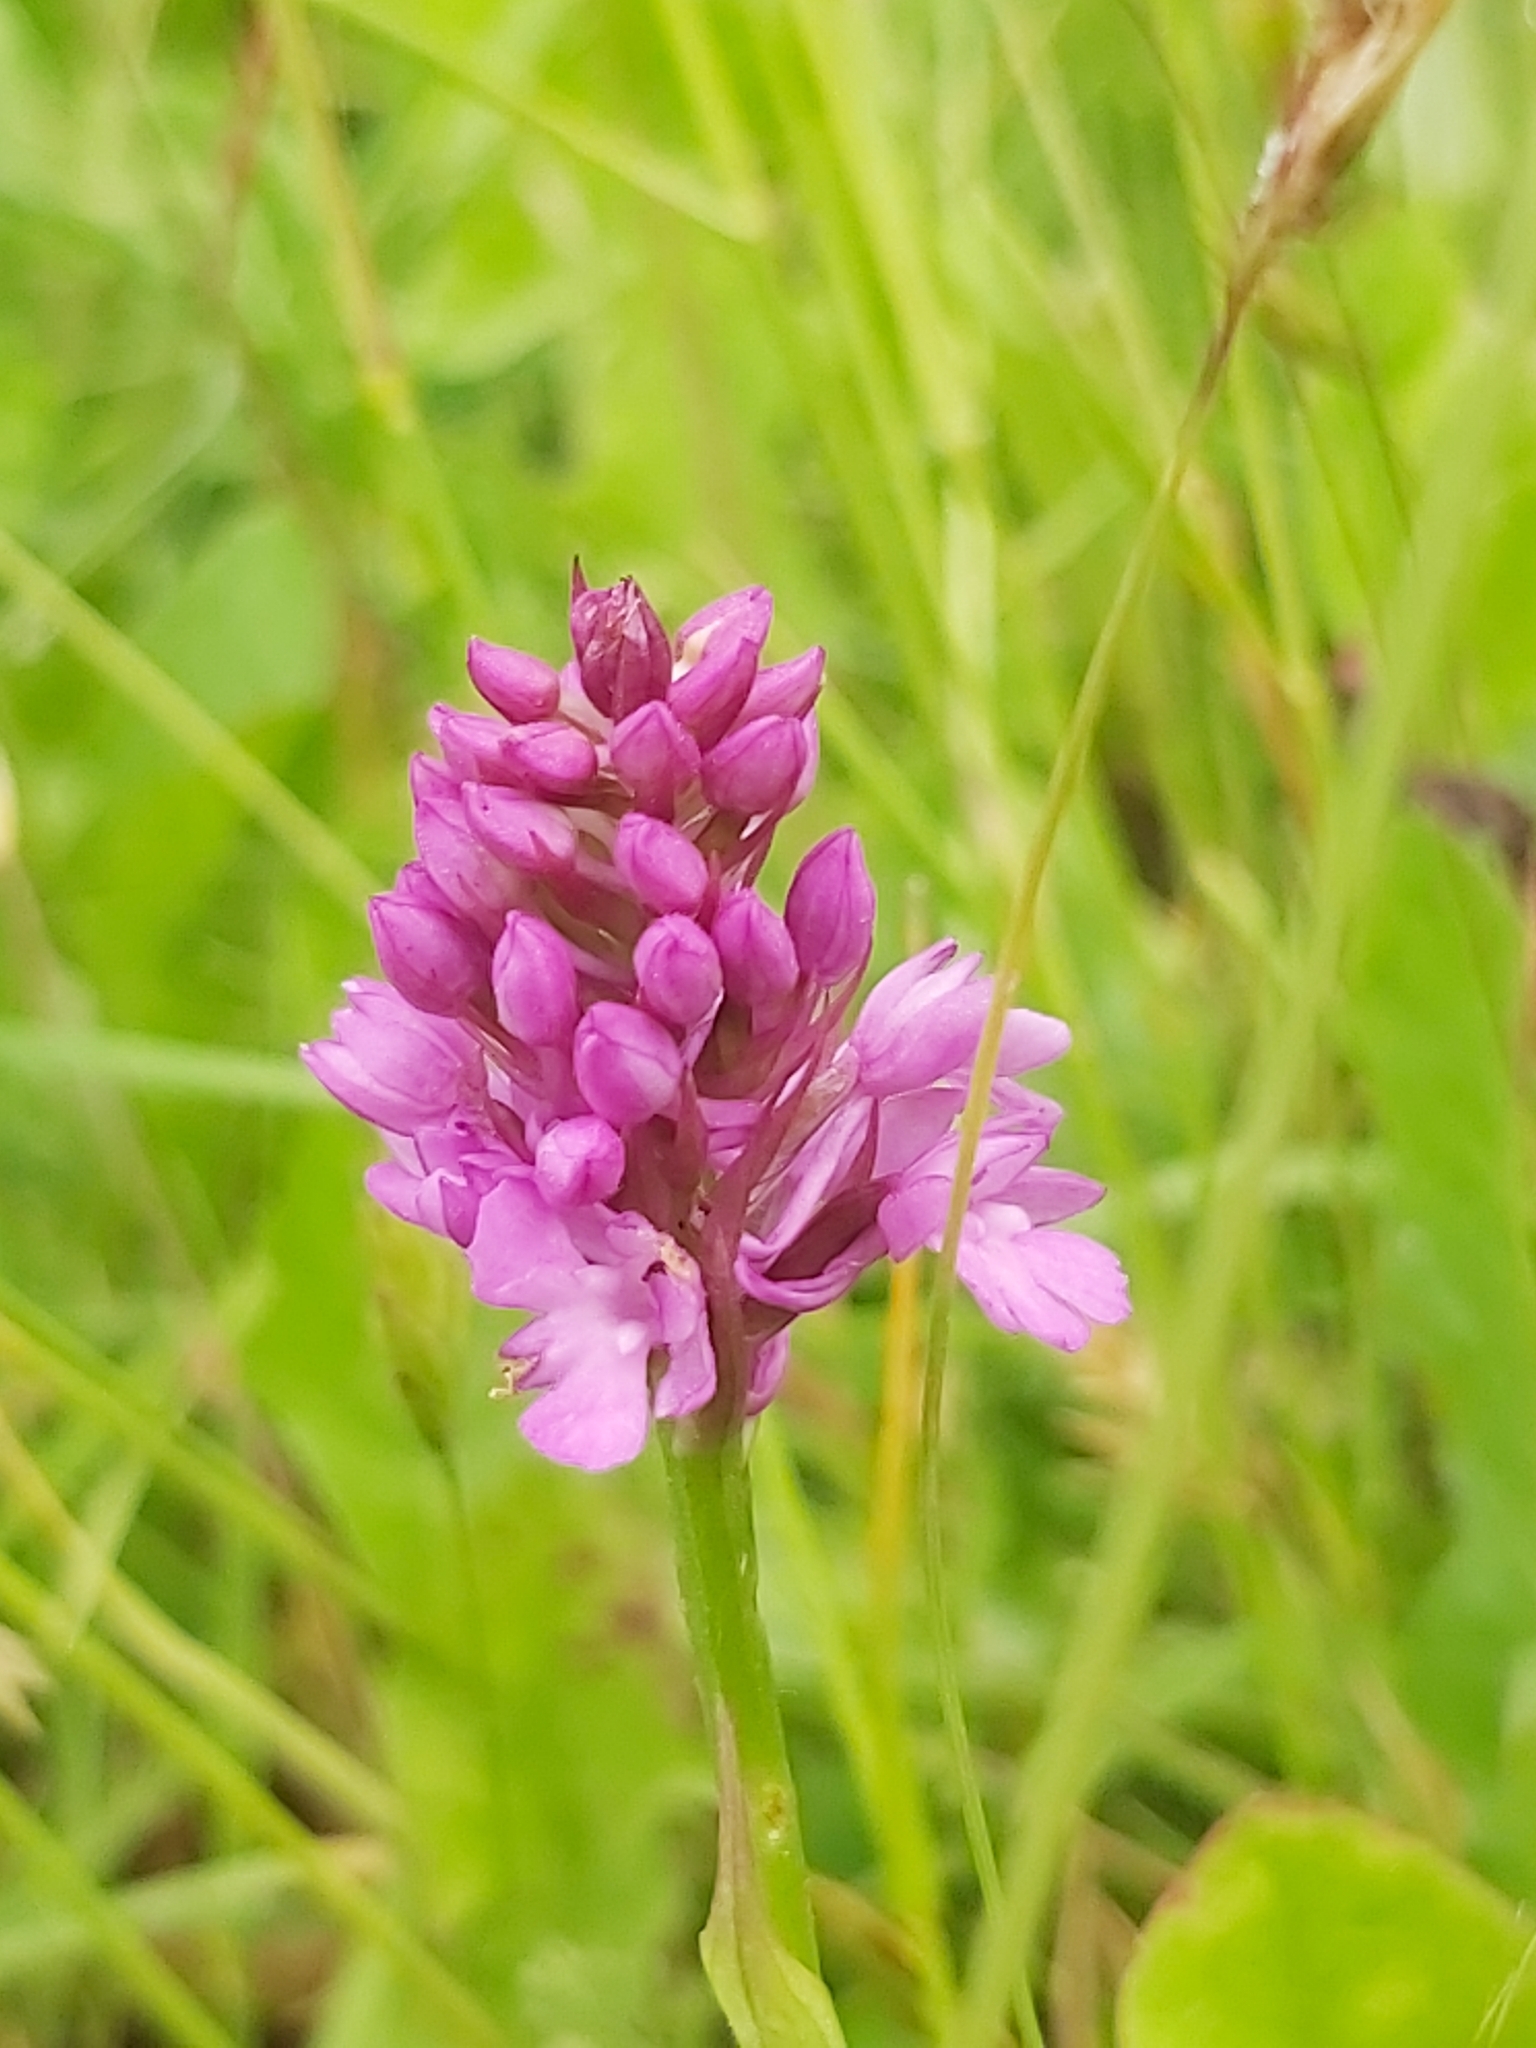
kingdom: Plantae
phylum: Tracheophyta
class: Liliopsida
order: Asparagales
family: Orchidaceae
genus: Anacamptis
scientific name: Anacamptis pyramidalis
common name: Pyramidal orchid
